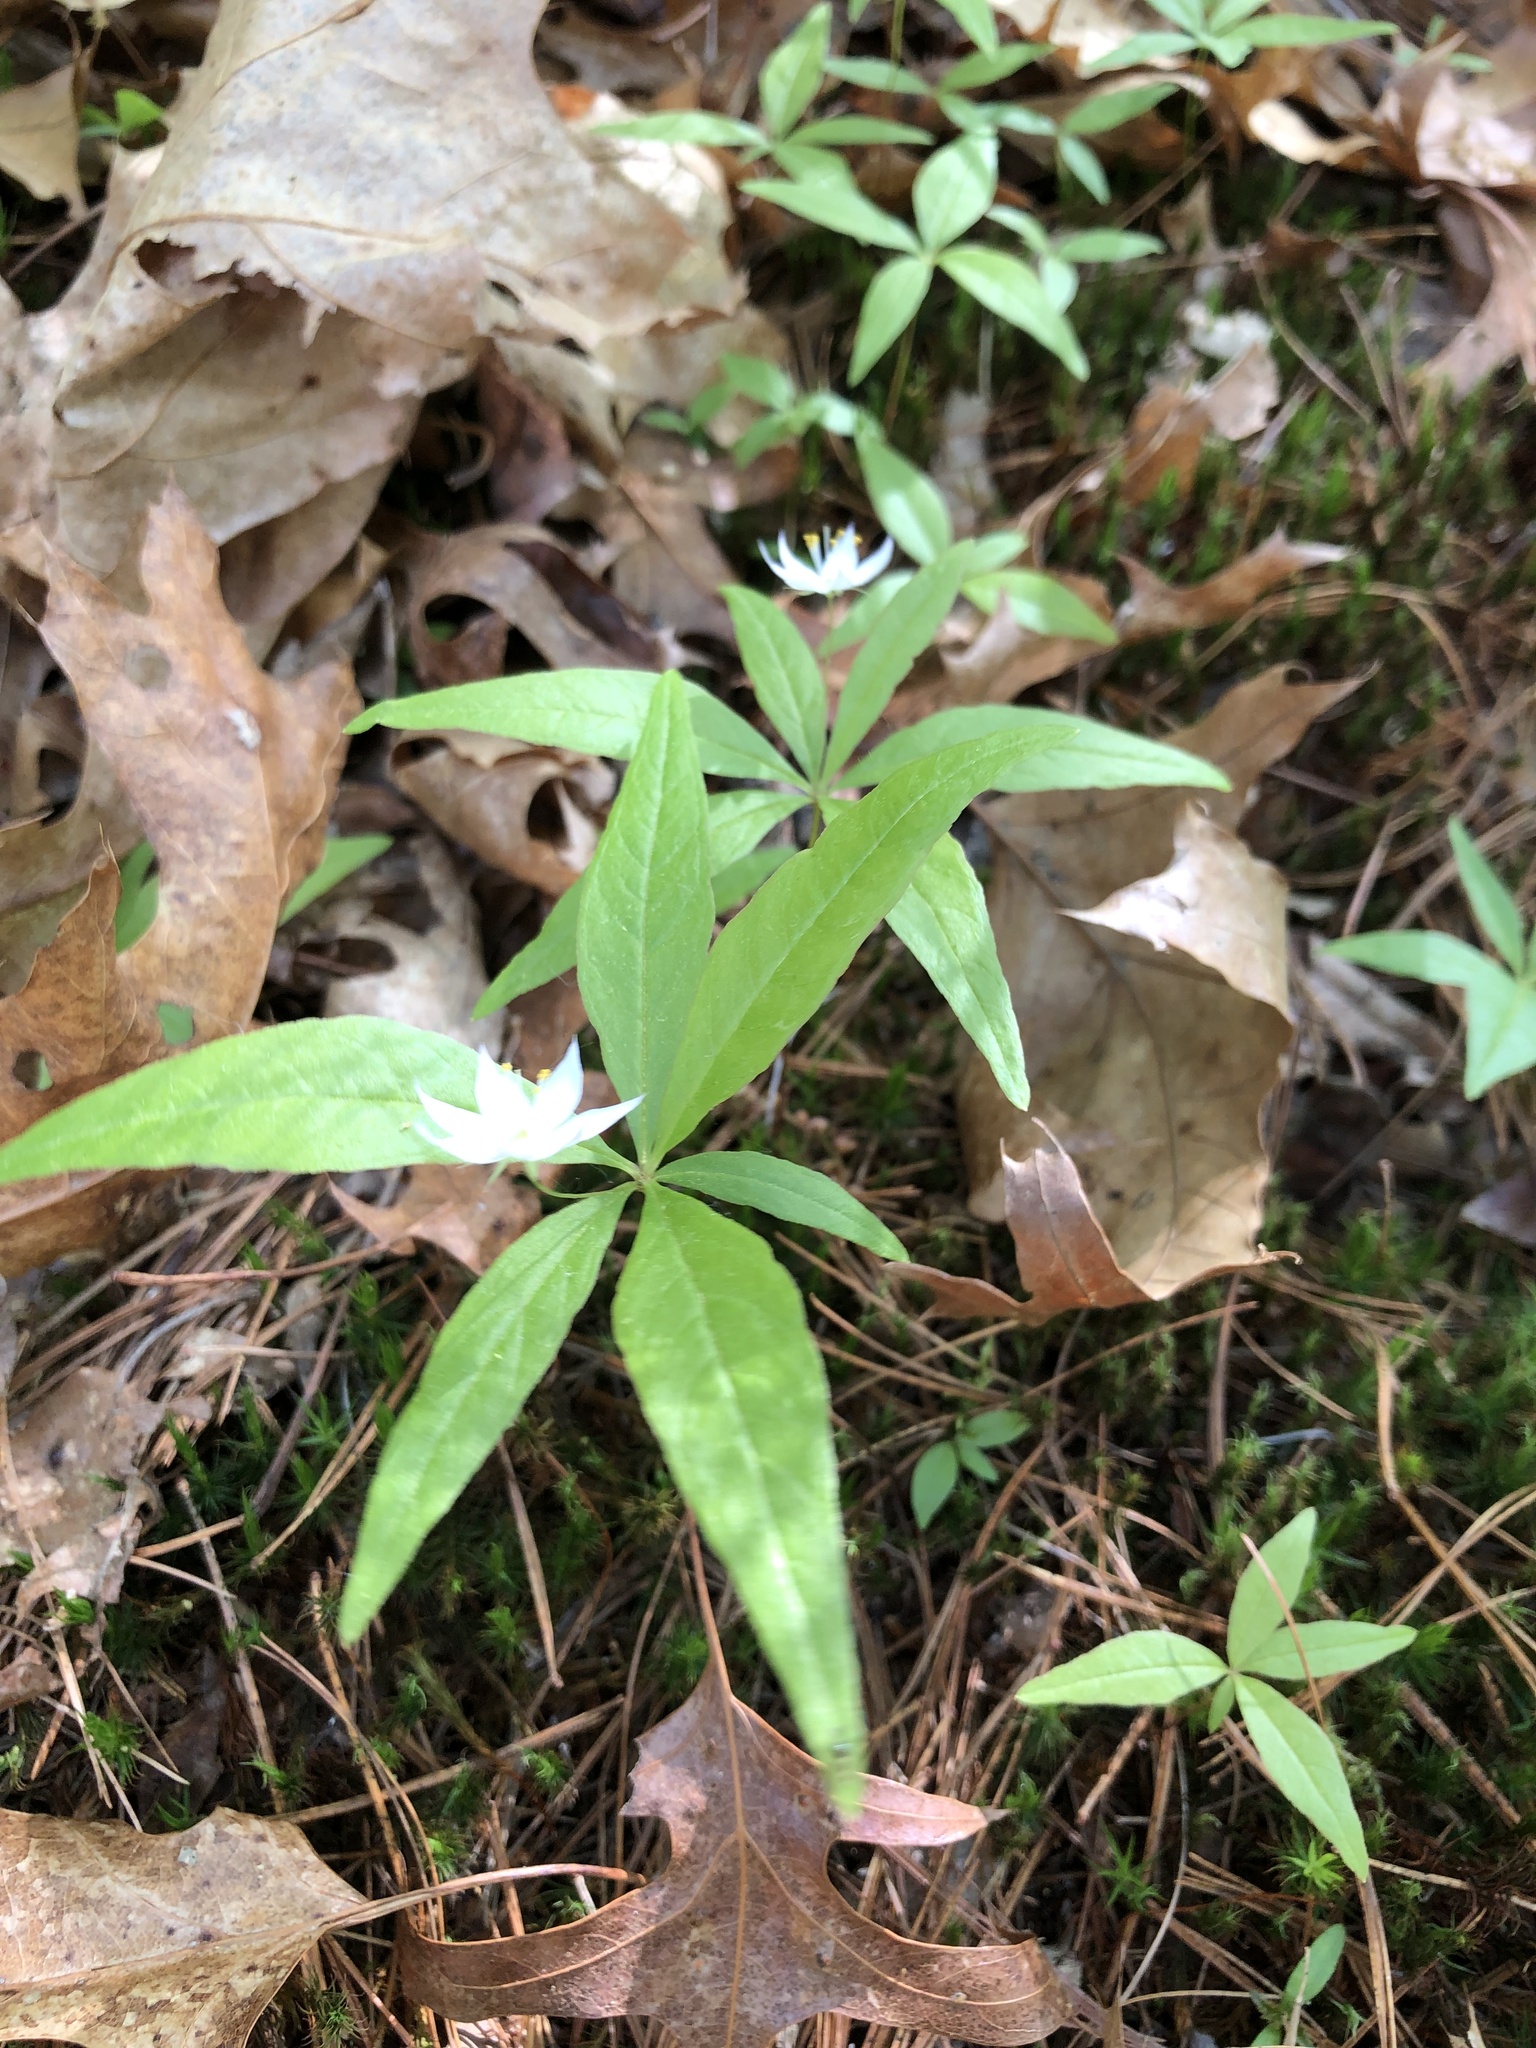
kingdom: Plantae
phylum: Tracheophyta
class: Magnoliopsida
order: Ericales
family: Primulaceae
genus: Lysimachia
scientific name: Lysimachia borealis
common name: American starflower
